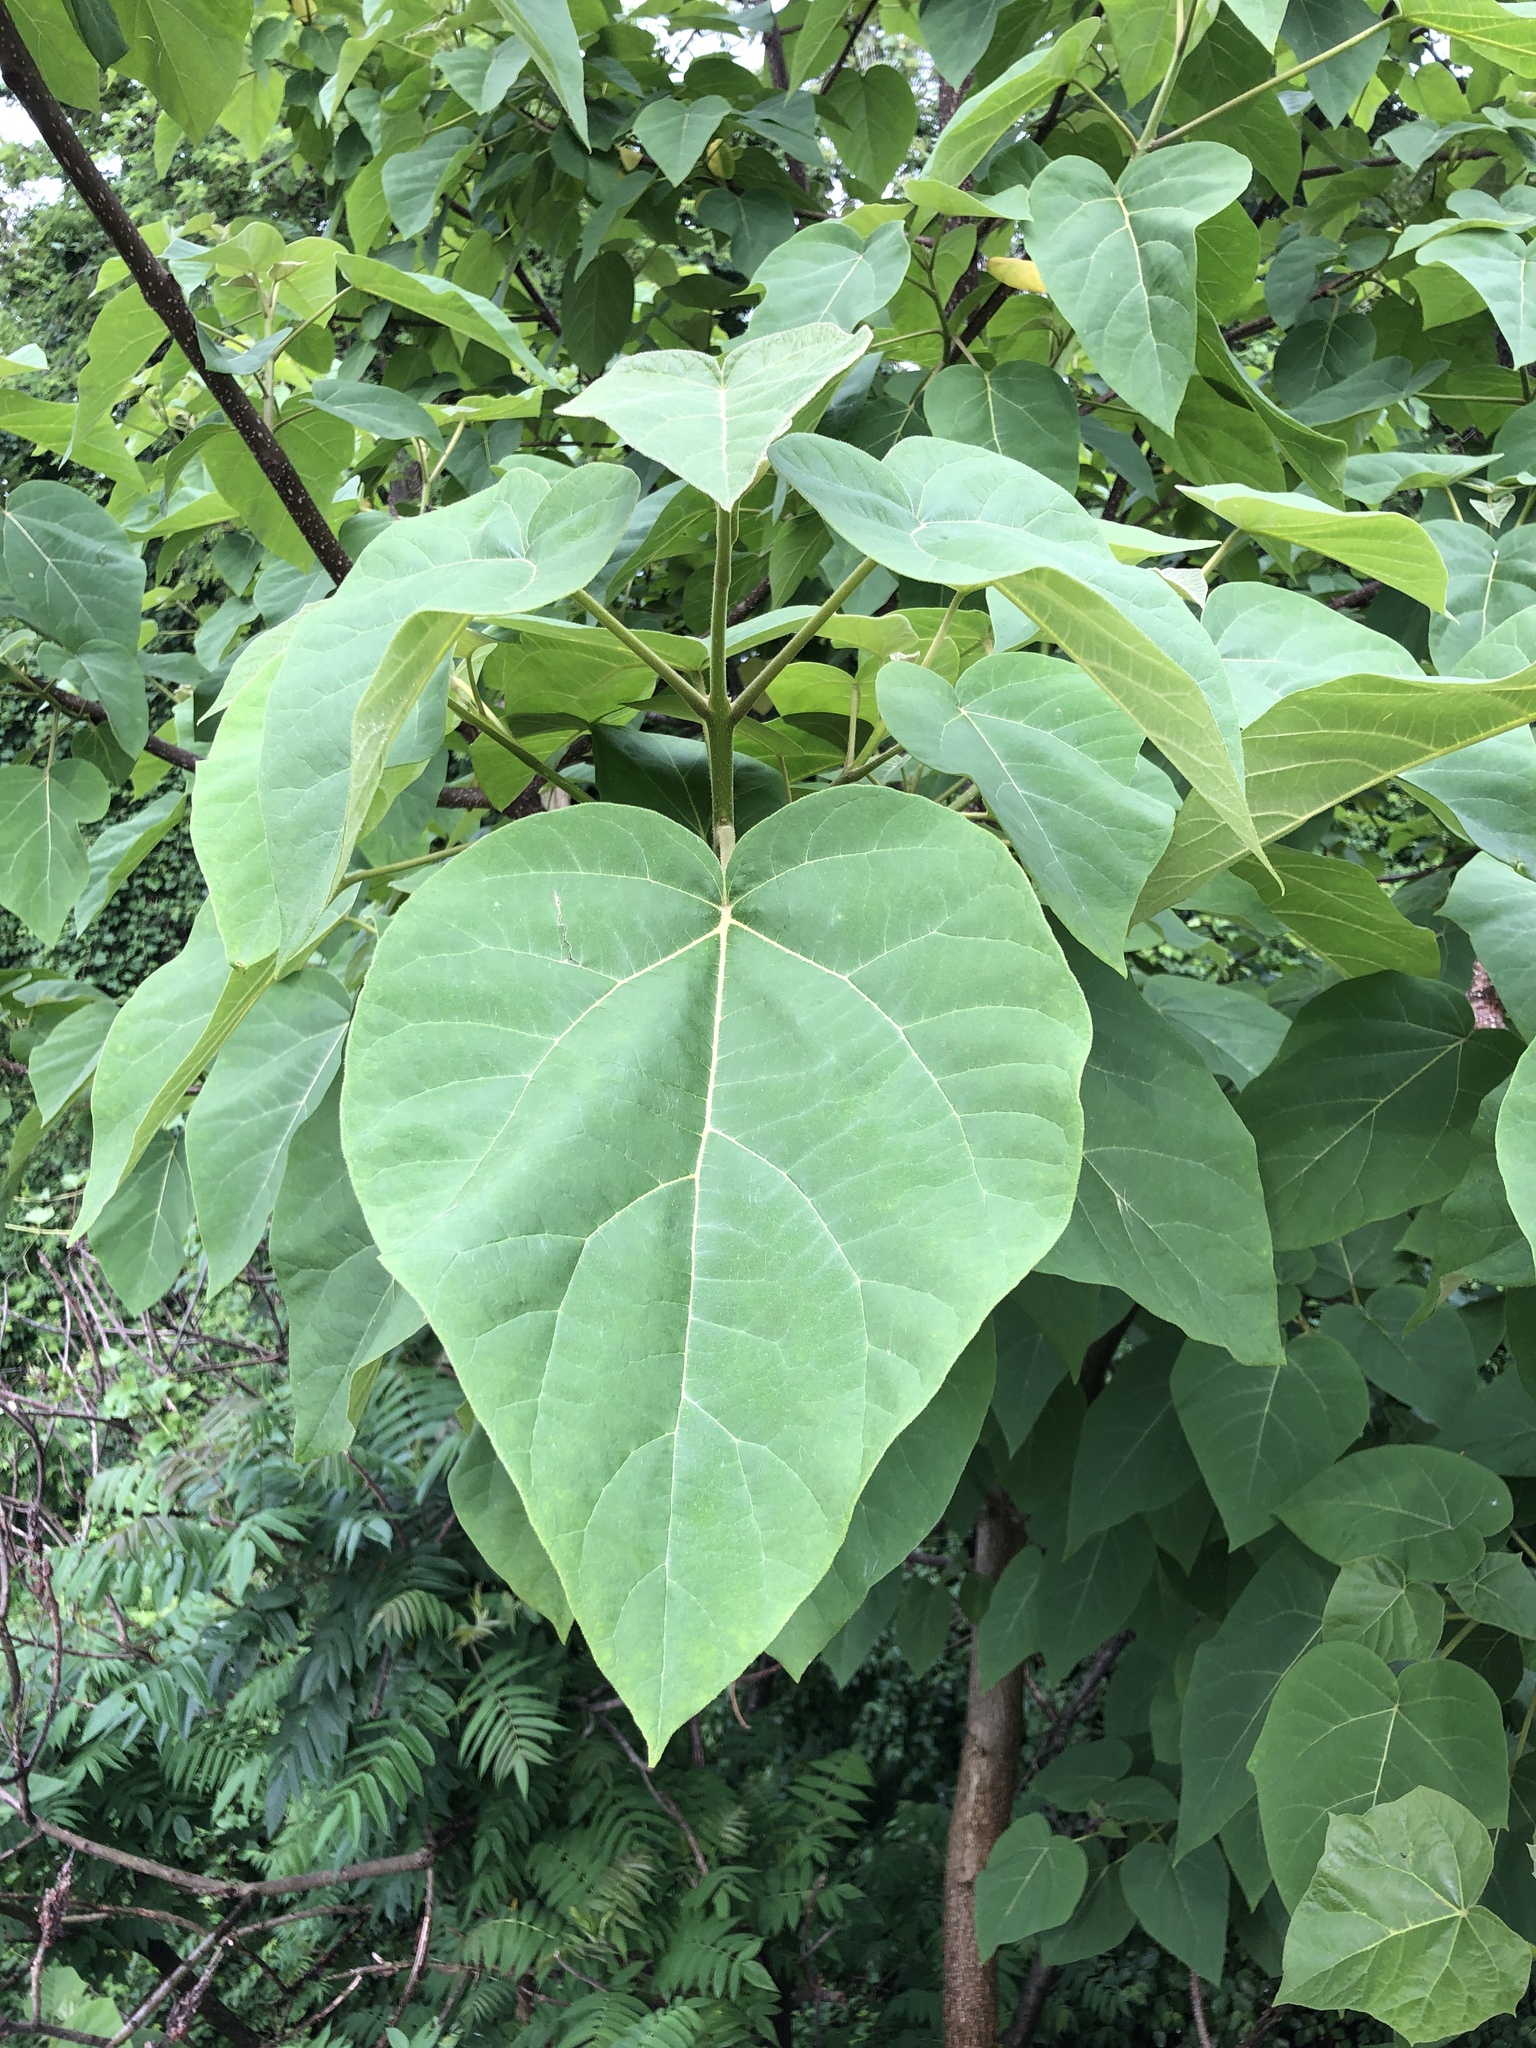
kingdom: Plantae
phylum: Tracheophyta
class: Magnoliopsida
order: Lamiales
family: Paulowniaceae
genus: Paulownia
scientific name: Paulownia tomentosa
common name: Foxglove-tree
